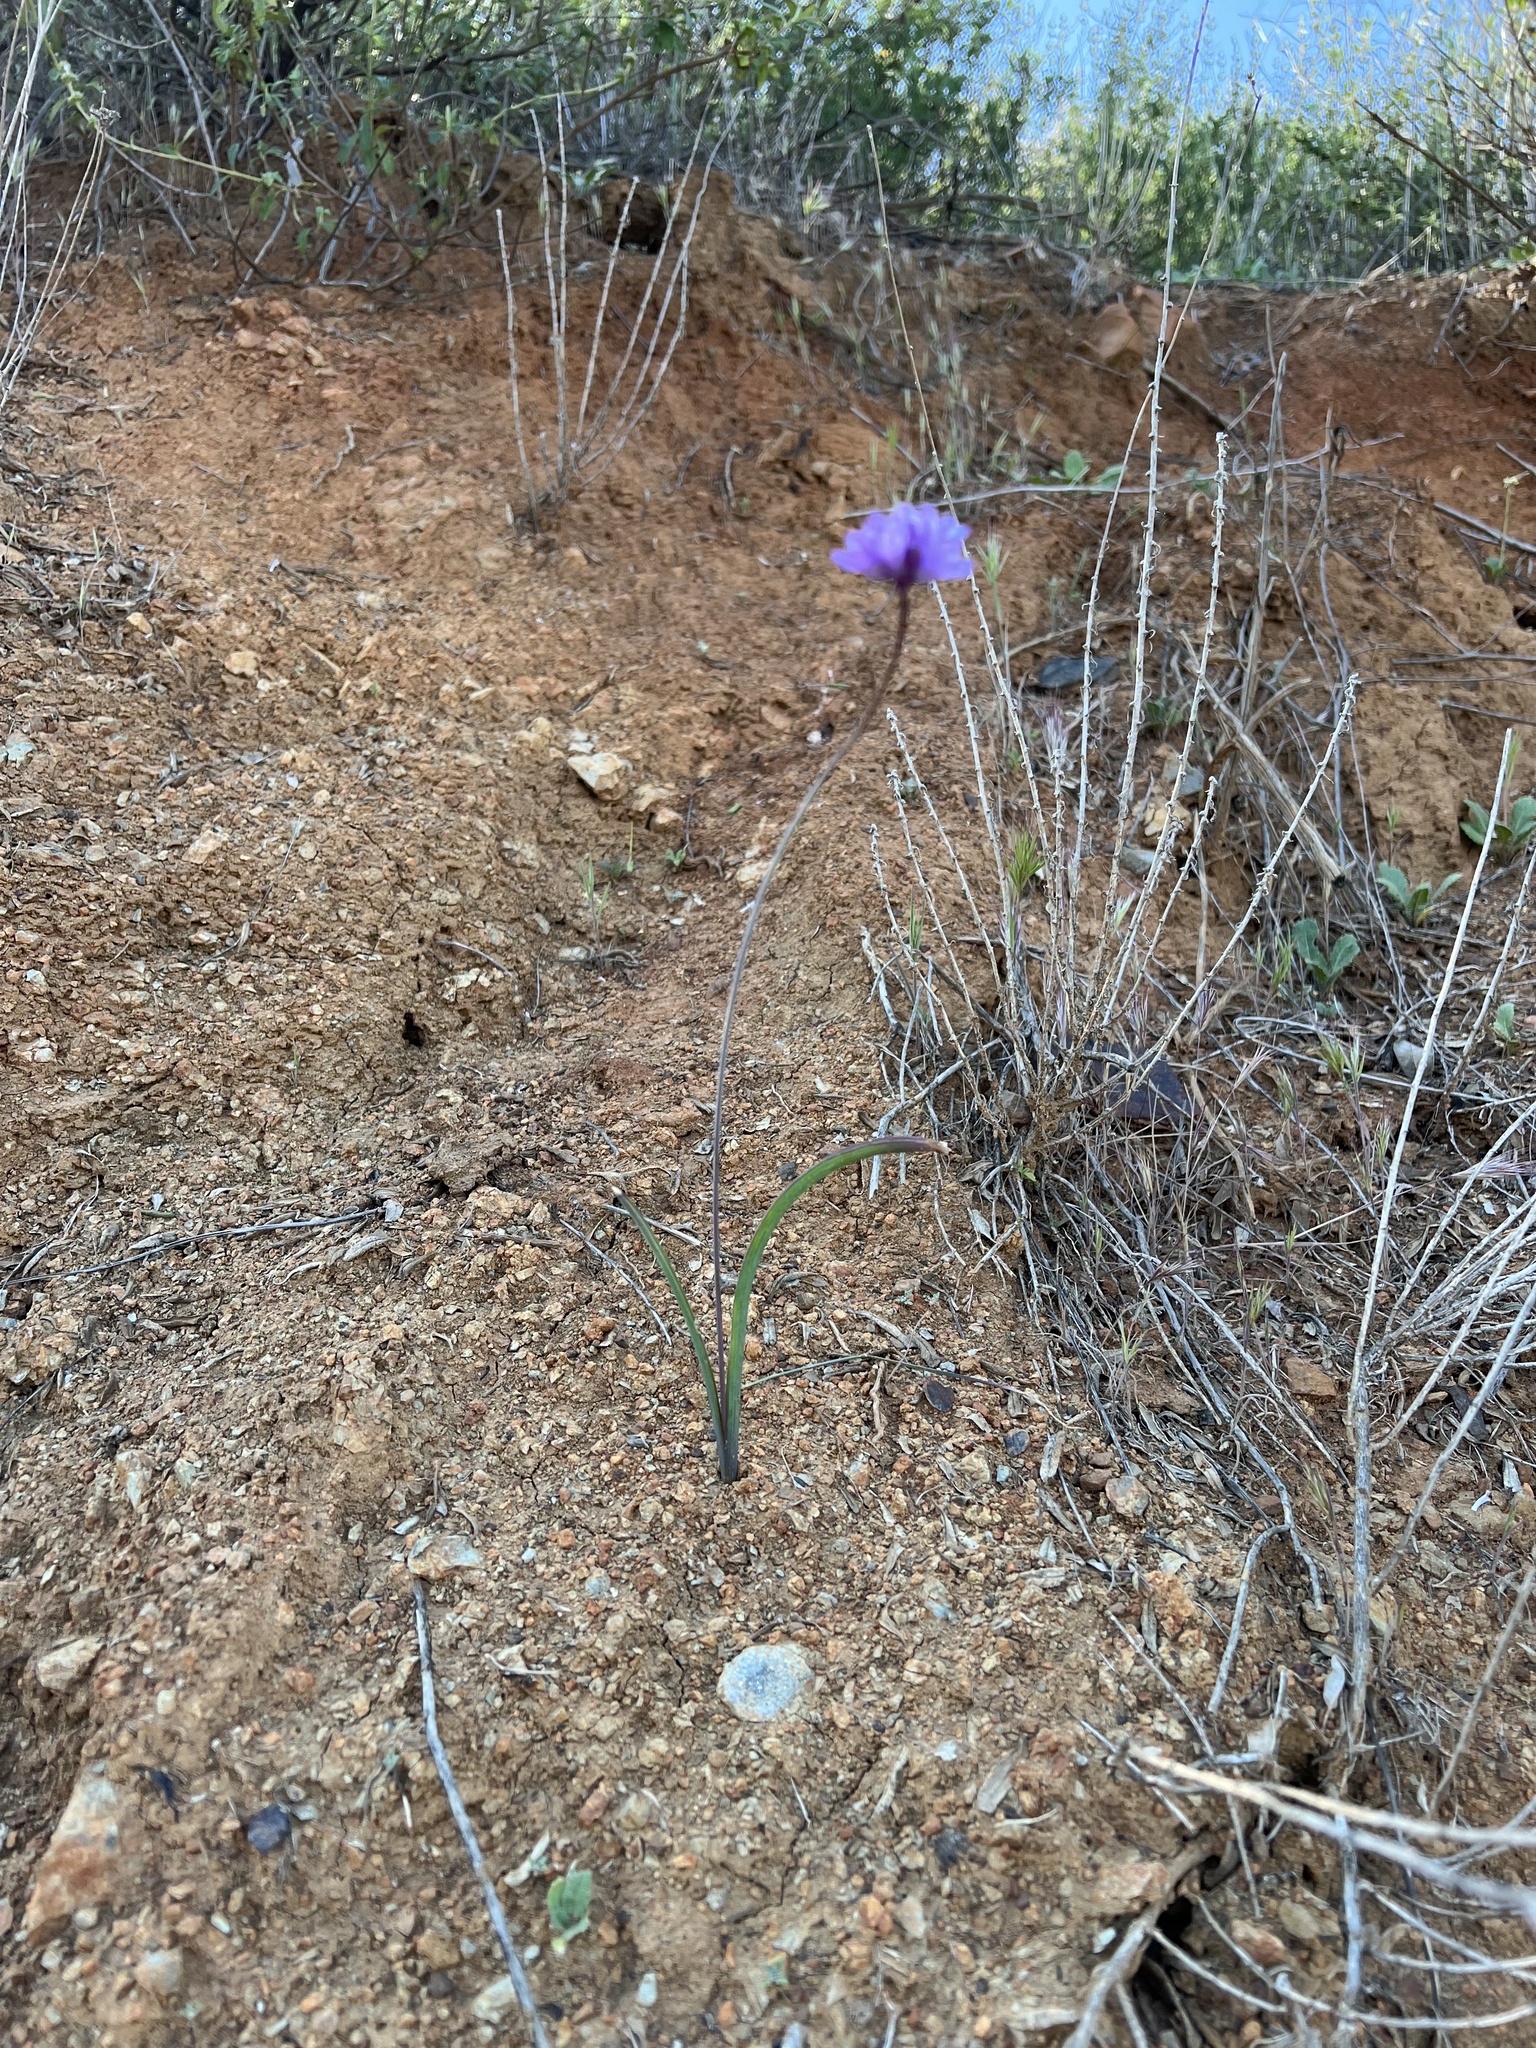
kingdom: Plantae
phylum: Tracheophyta
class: Liliopsida
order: Asparagales
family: Asparagaceae
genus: Dipterostemon
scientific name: Dipterostemon capitatus
